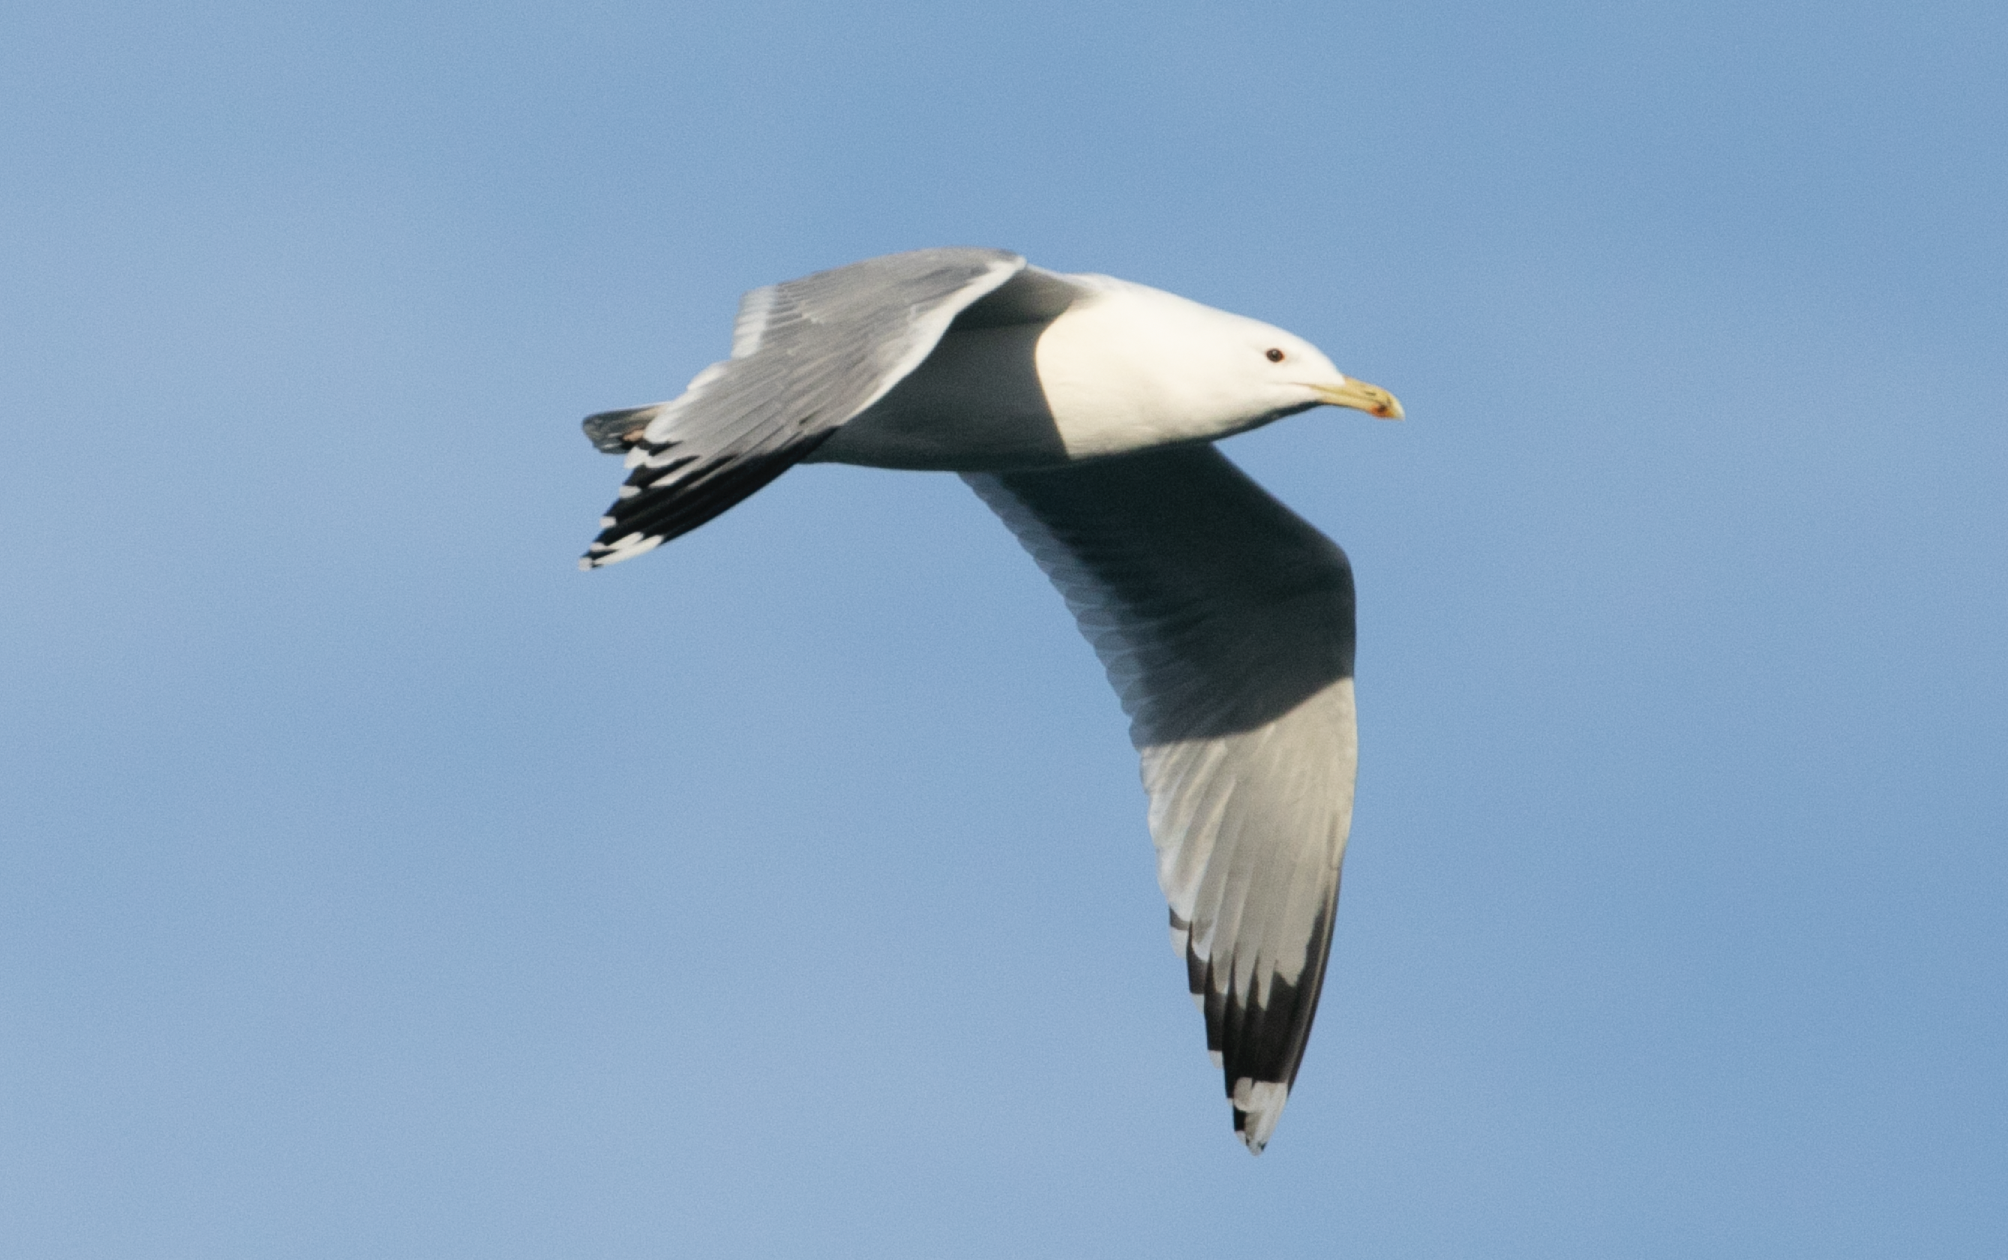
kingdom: Animalia
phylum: Chordata
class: Aves
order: Charadriiformes
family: Laridae
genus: Larus
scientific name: Larus cachinnans
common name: Caspian gull
